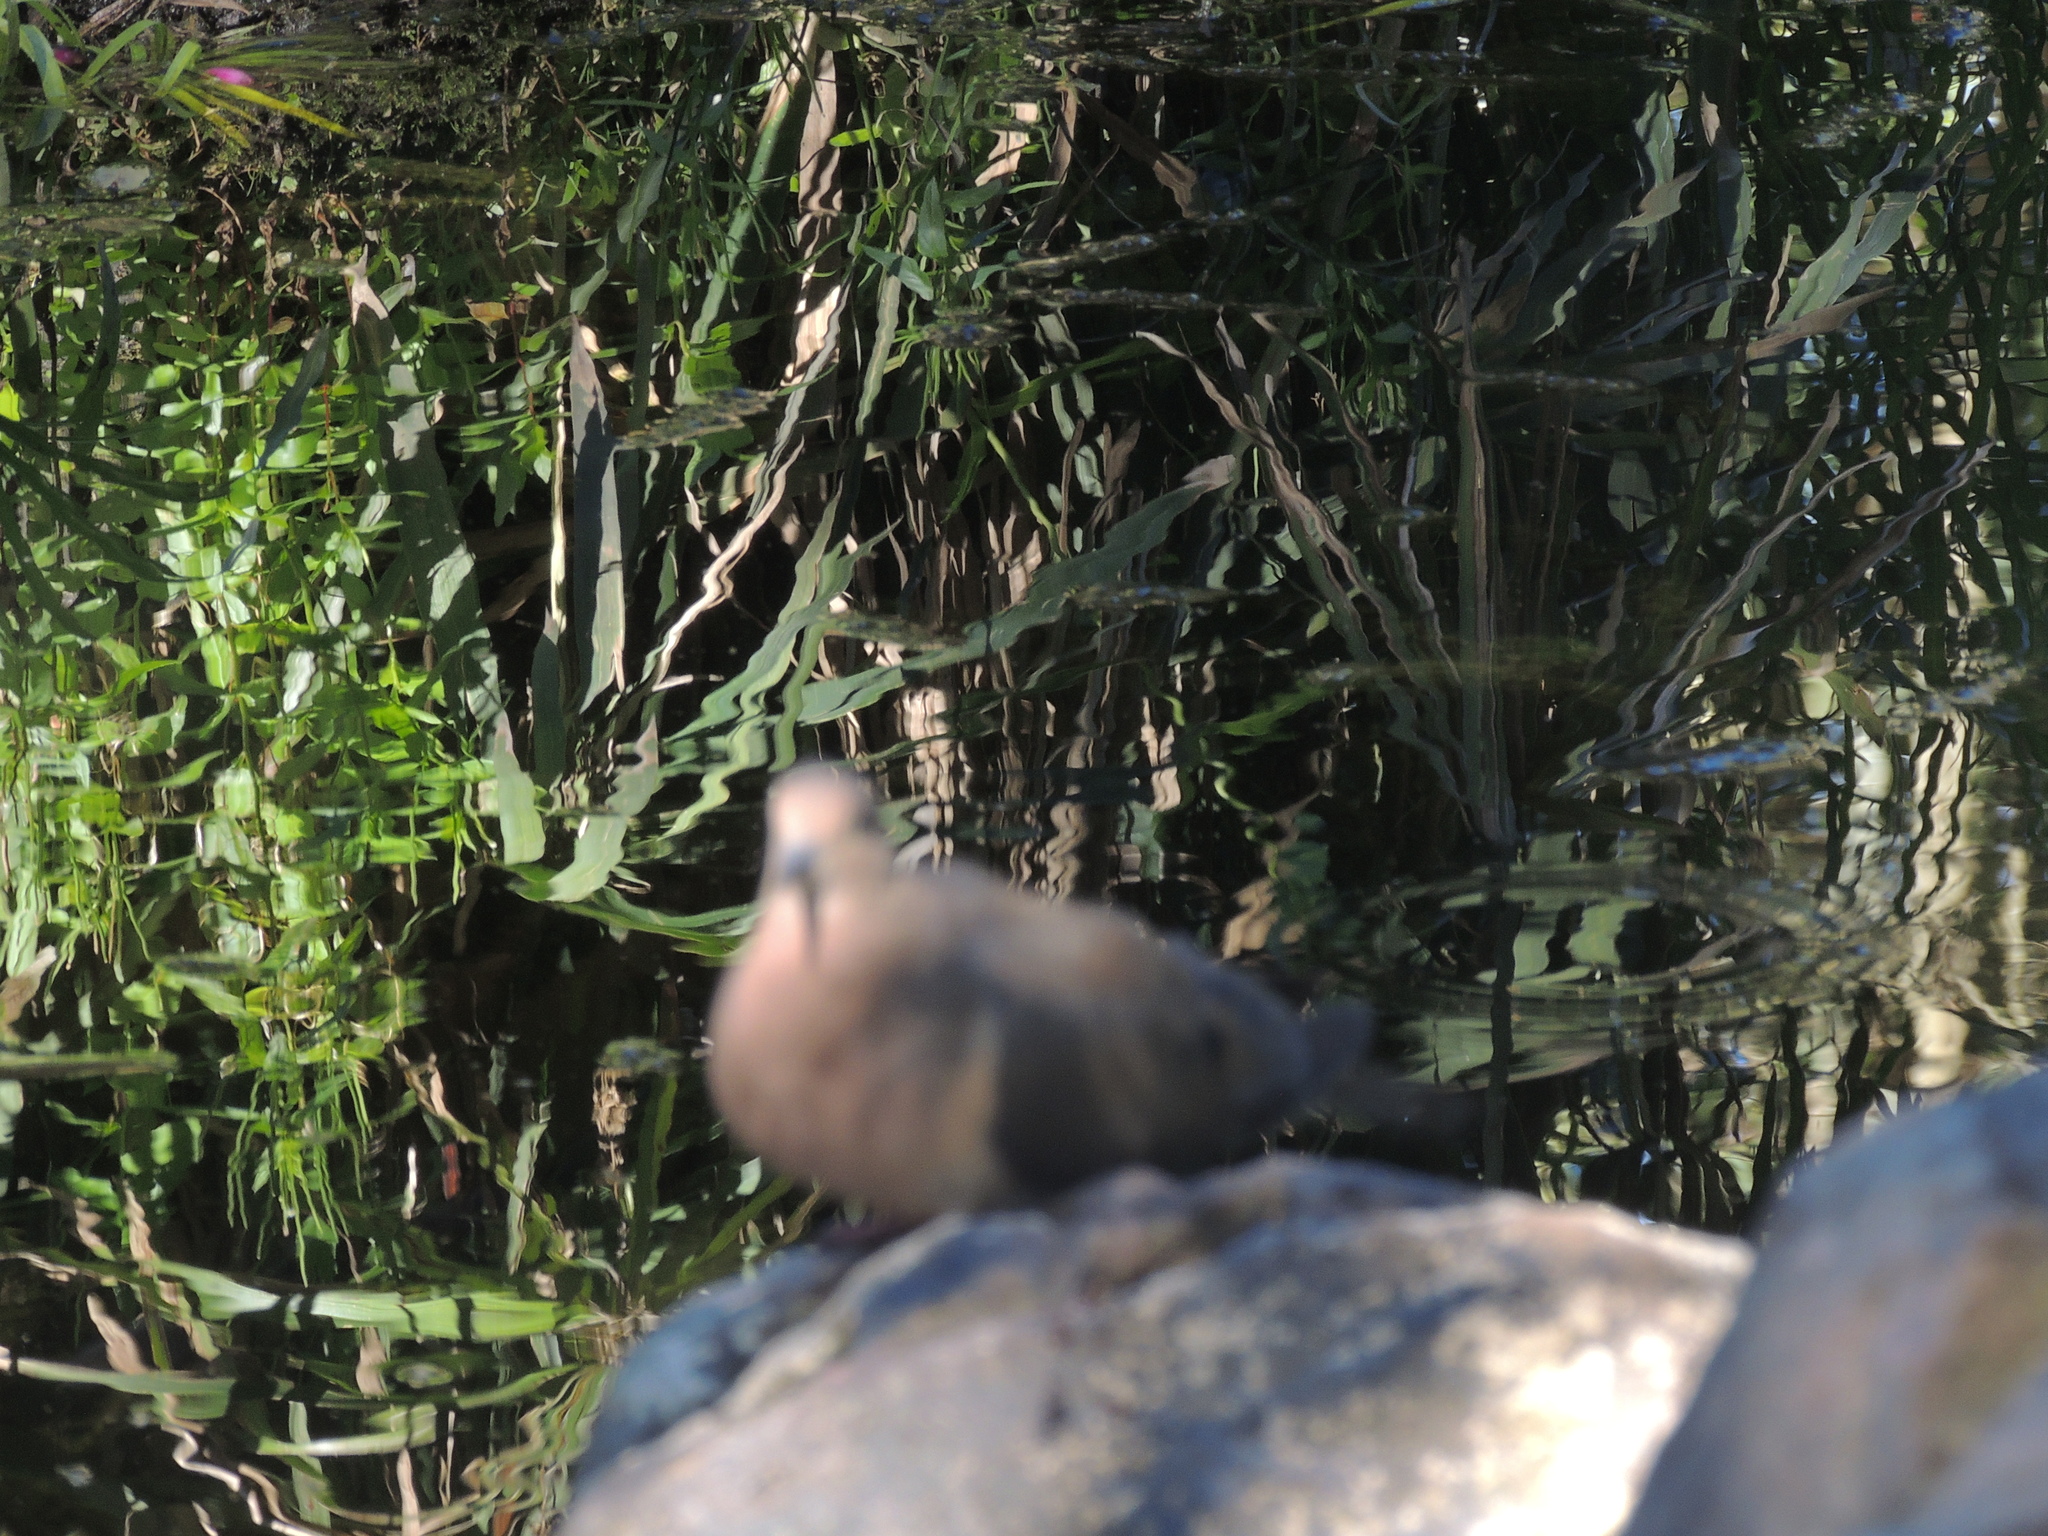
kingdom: Animalia
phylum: Chordata
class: Aves
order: Columbiformes
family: Columbidae
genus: Zenaida
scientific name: Zenaida auriculata
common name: Eared dove
